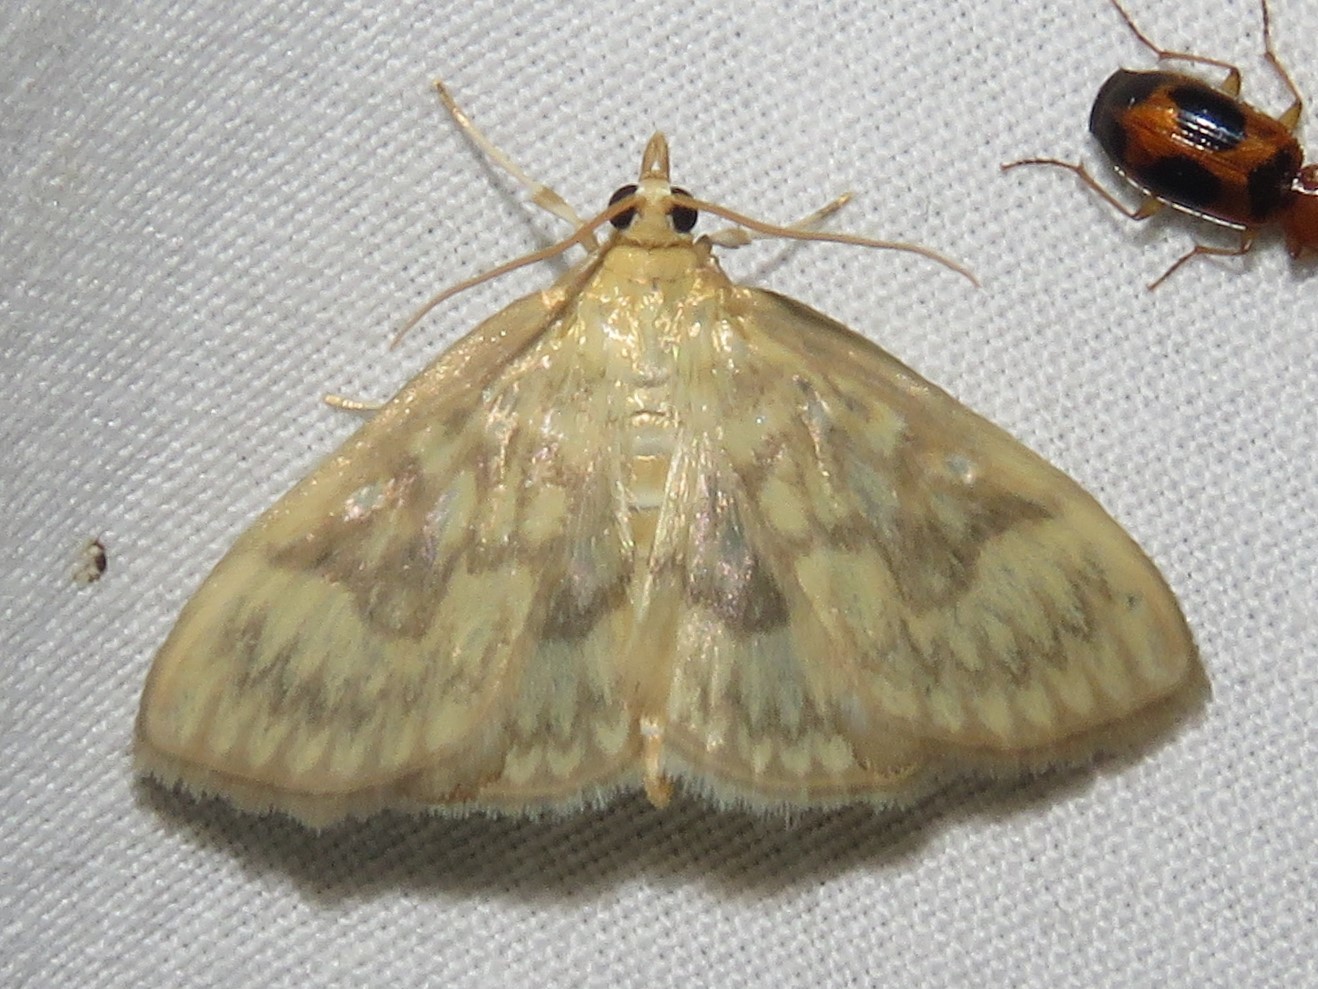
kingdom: Animalia
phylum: Arthropoda
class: Insecta
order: Lepidoptera
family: Crambidae
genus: Crocidophora
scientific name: Crocidophora serratissimalis
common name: Saw-toothed crocidophora moth
